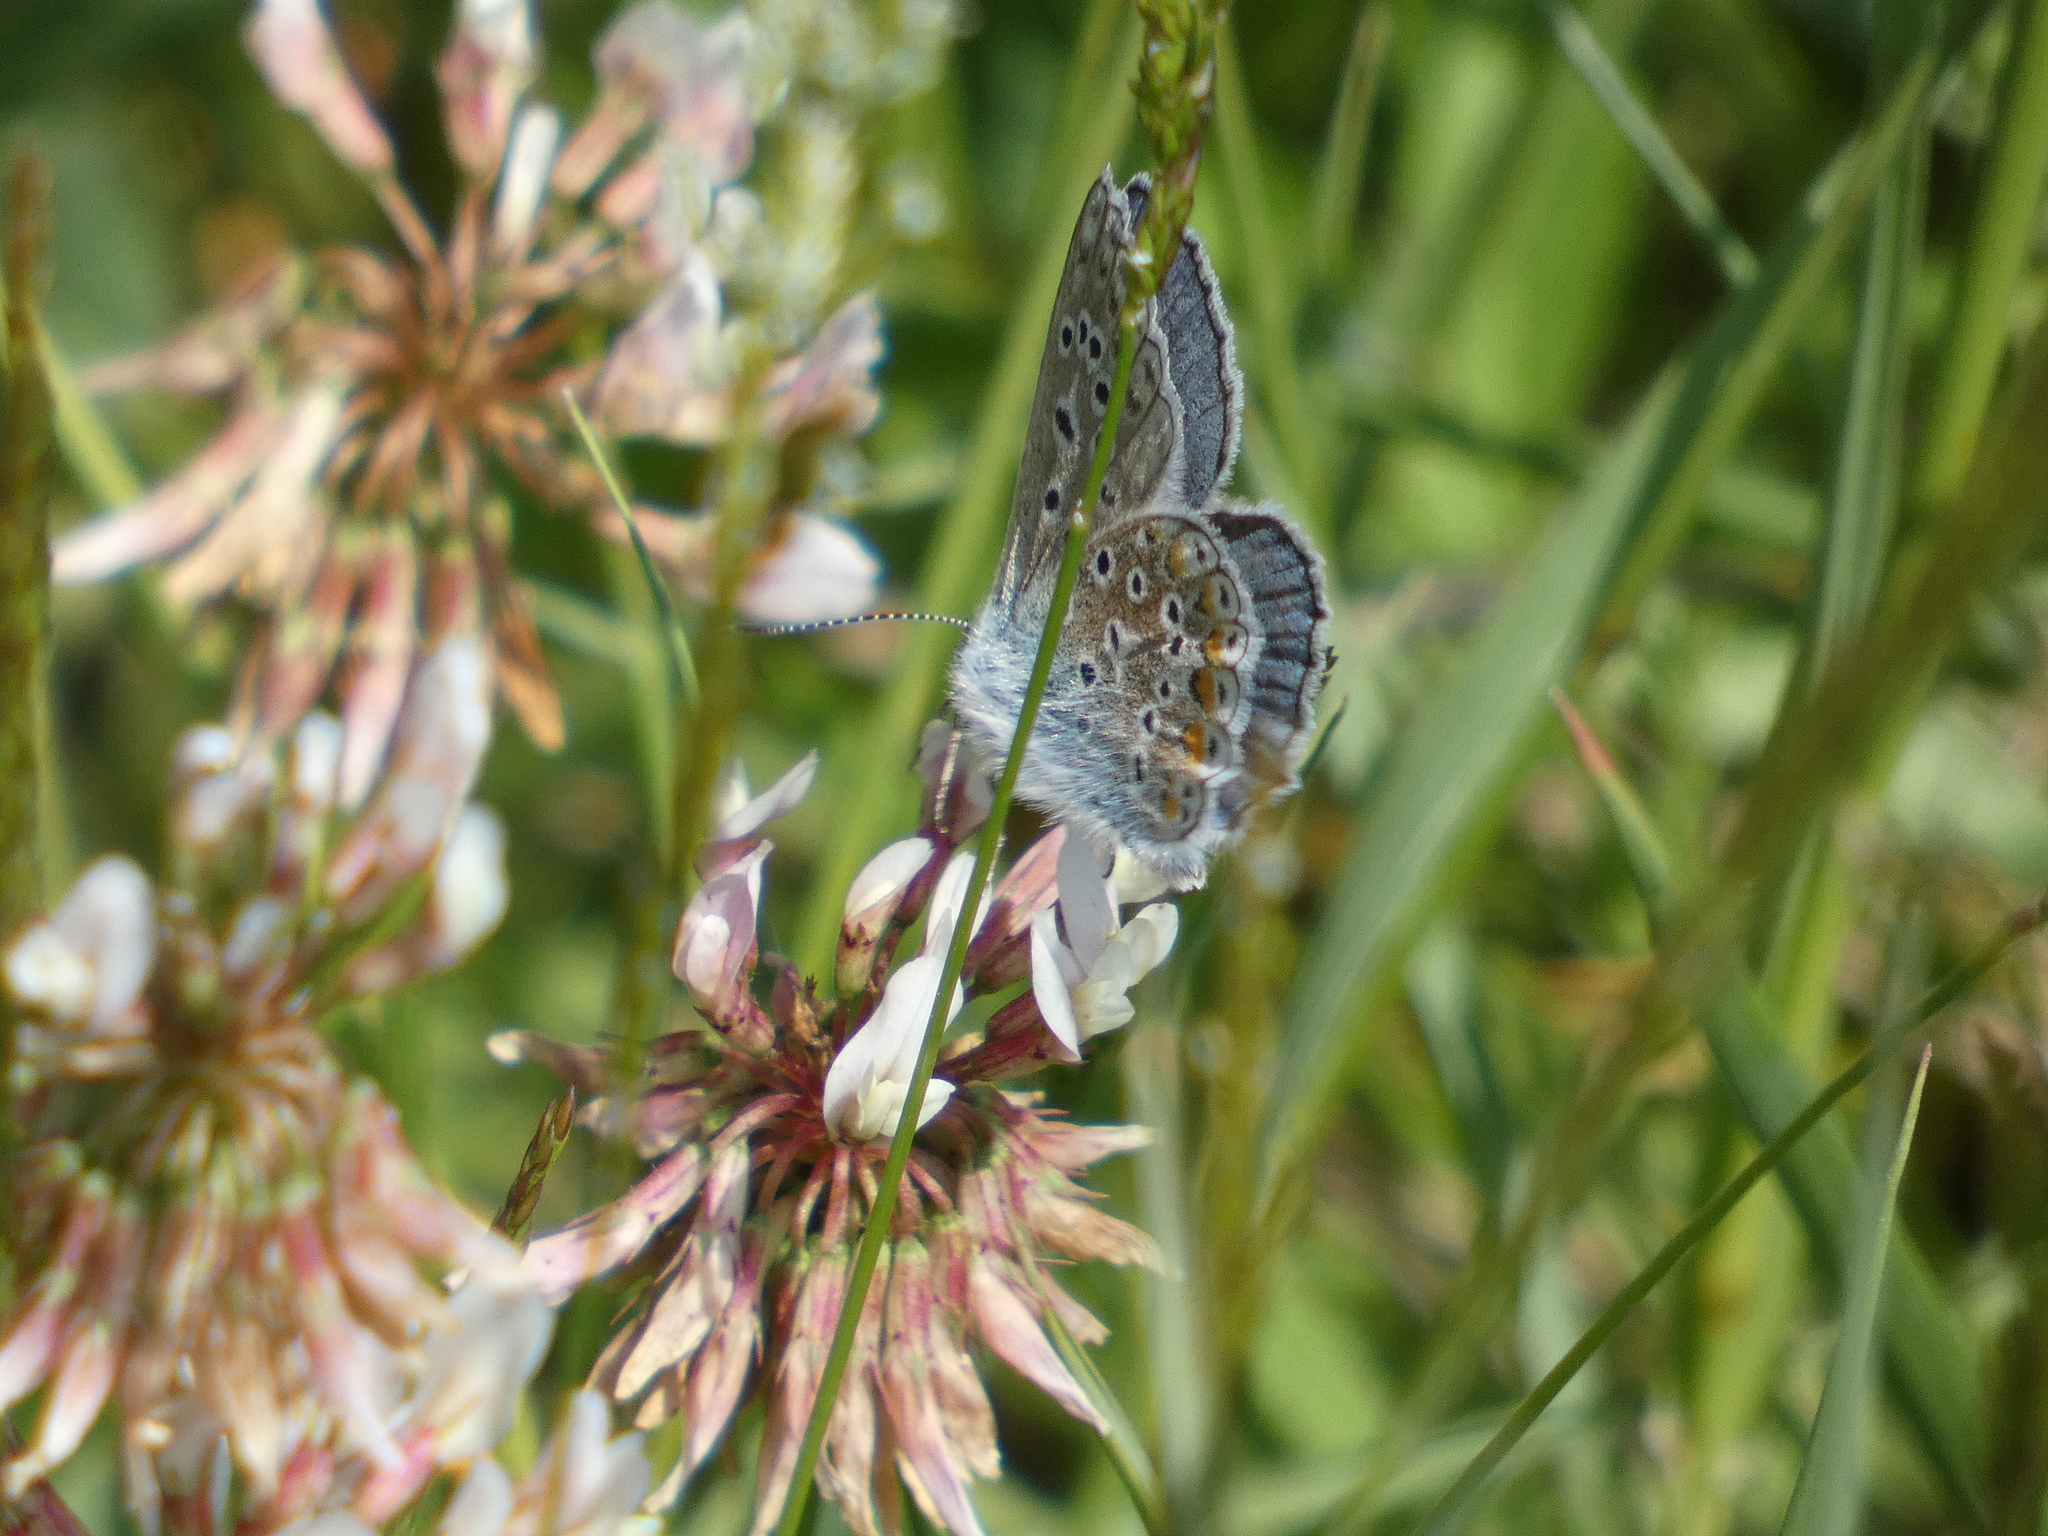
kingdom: Animalia
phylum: Arthropoda
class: Insecta
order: Lepidoptera
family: Lycaenidae
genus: Polyommatus
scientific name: Polyommatus icarus
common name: Common blue
